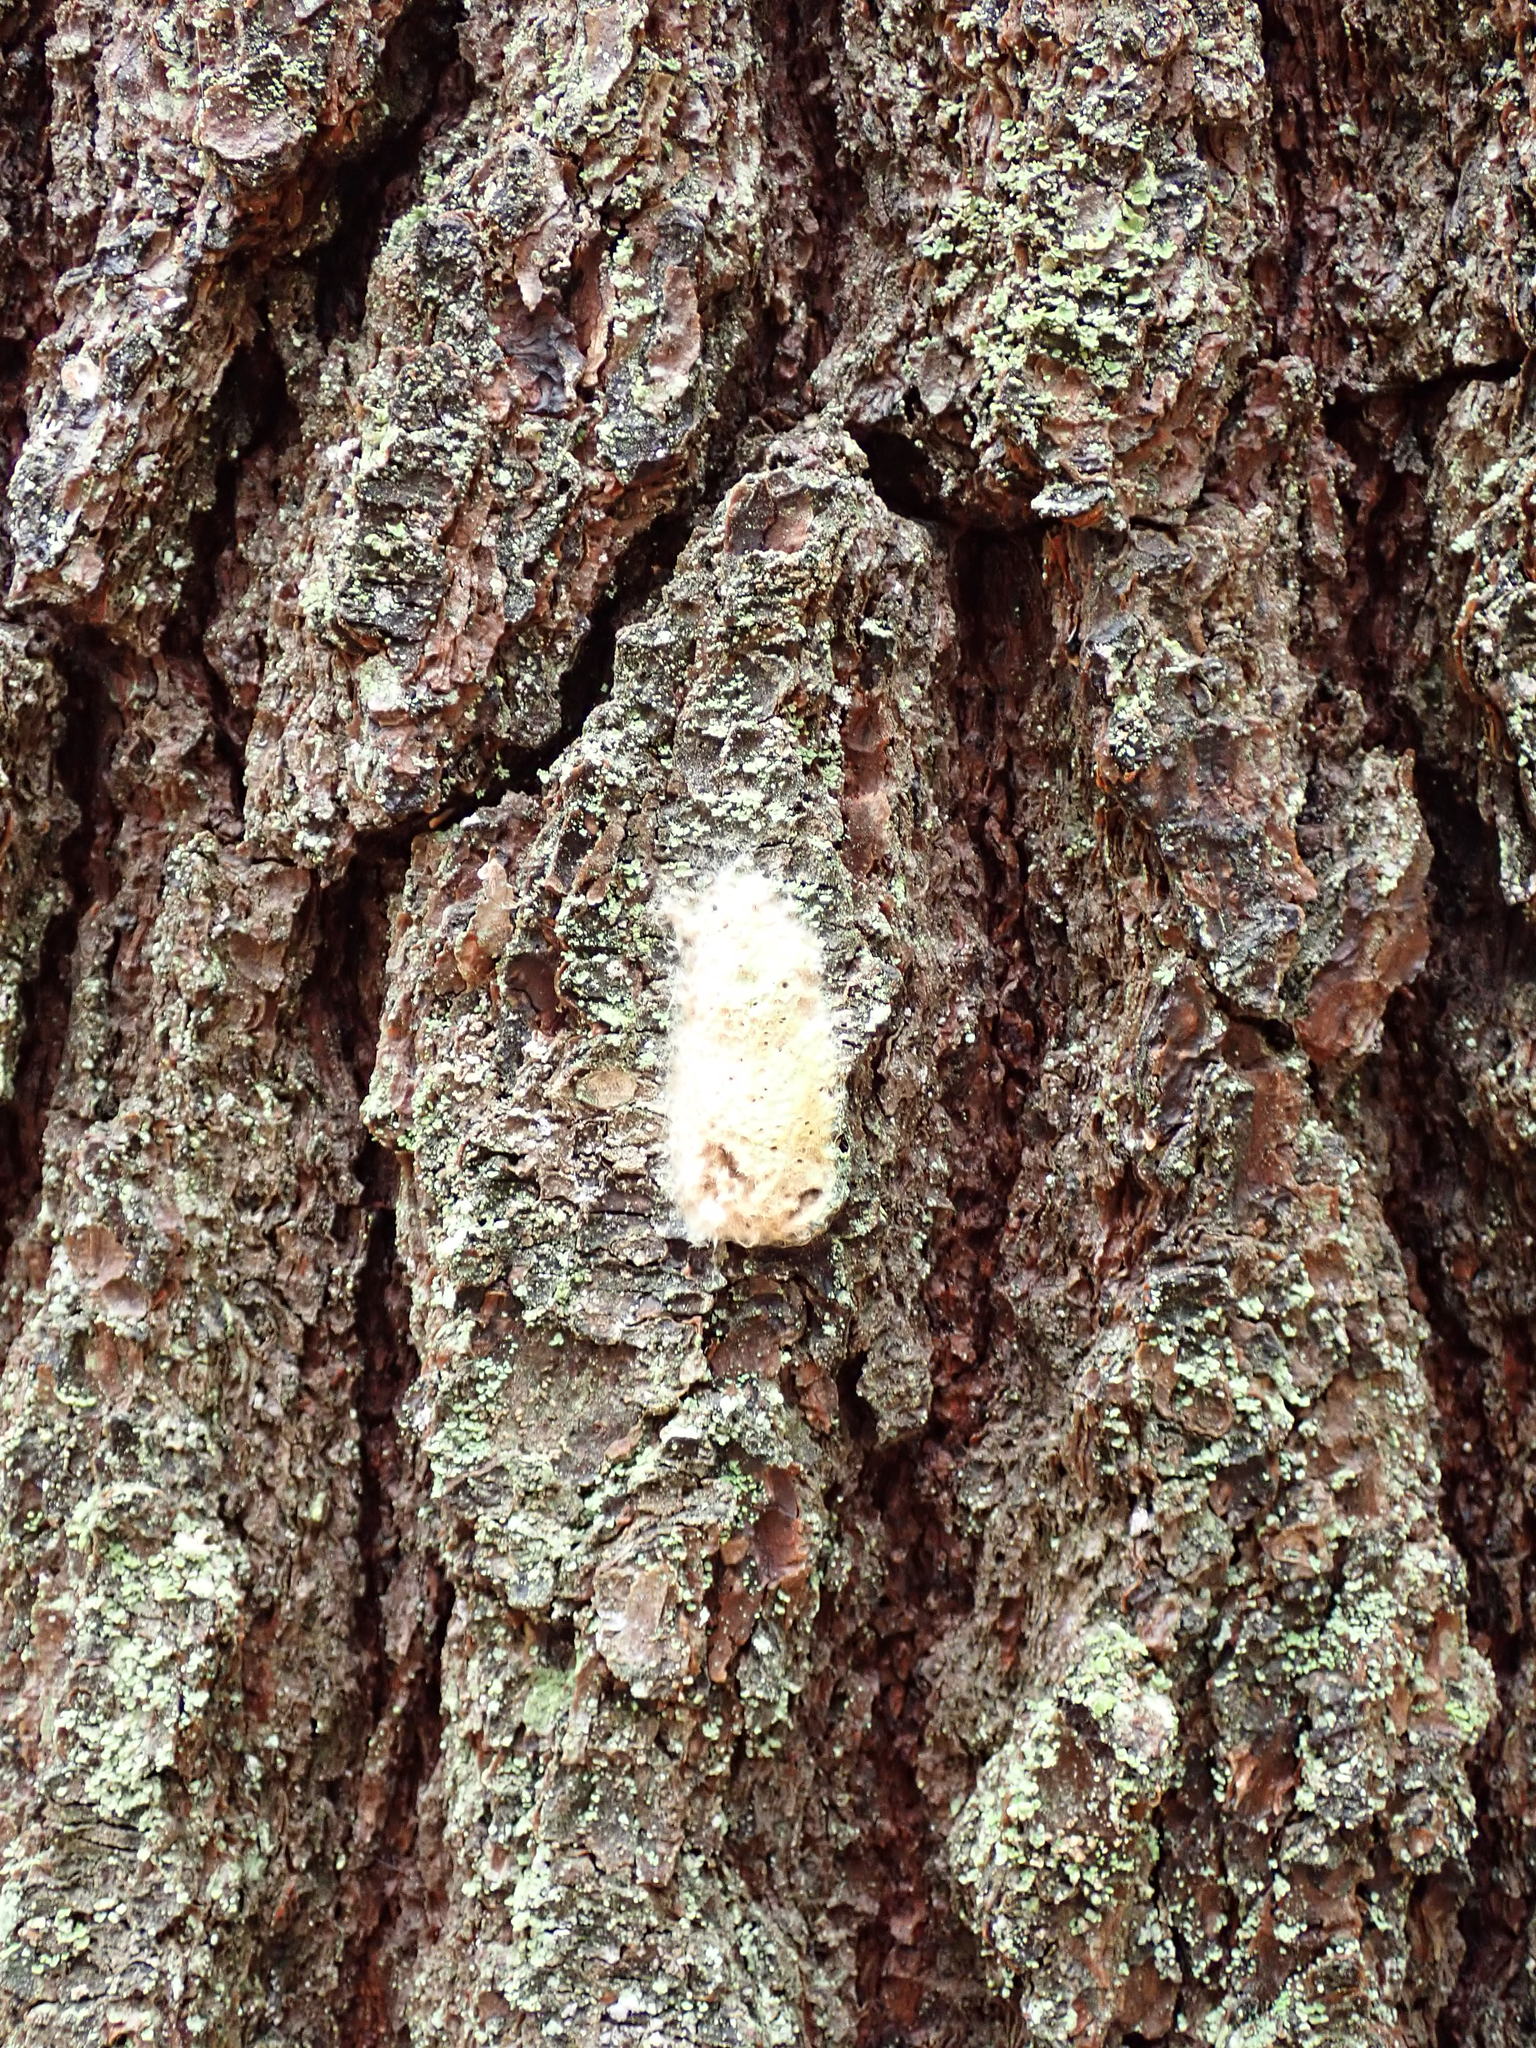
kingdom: Animalia
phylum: Arthropoda
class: Insecta
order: Lepidoptera
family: Erebidae
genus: Lymantria
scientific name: Lymantria dispar
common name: Gypsy moth
